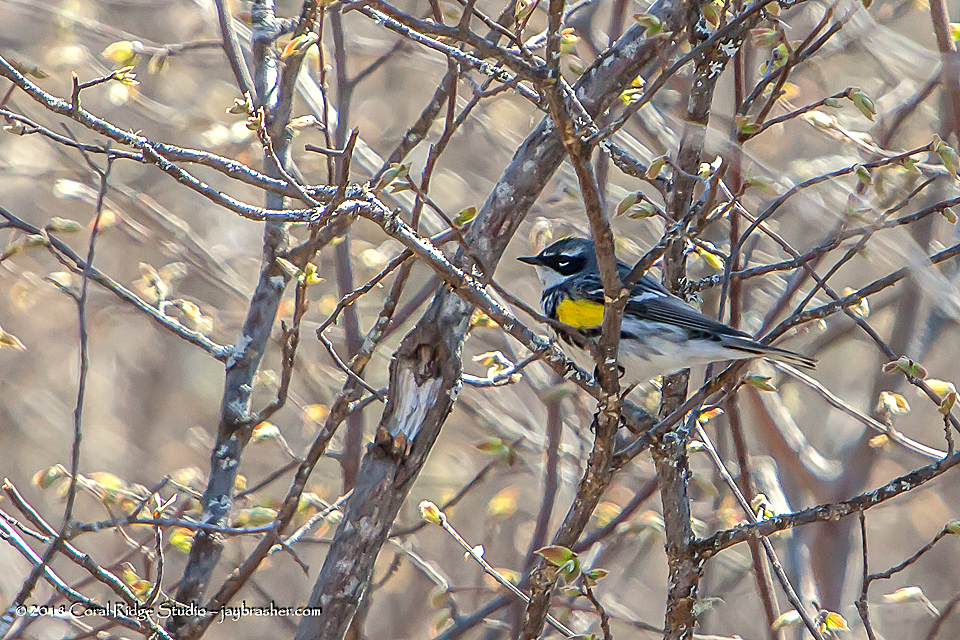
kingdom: Animalia
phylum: Chordata
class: Aves
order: Passeriformes
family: Parulidae
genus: Setophaga
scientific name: Setophaga coronata
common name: Myrtle warbler
